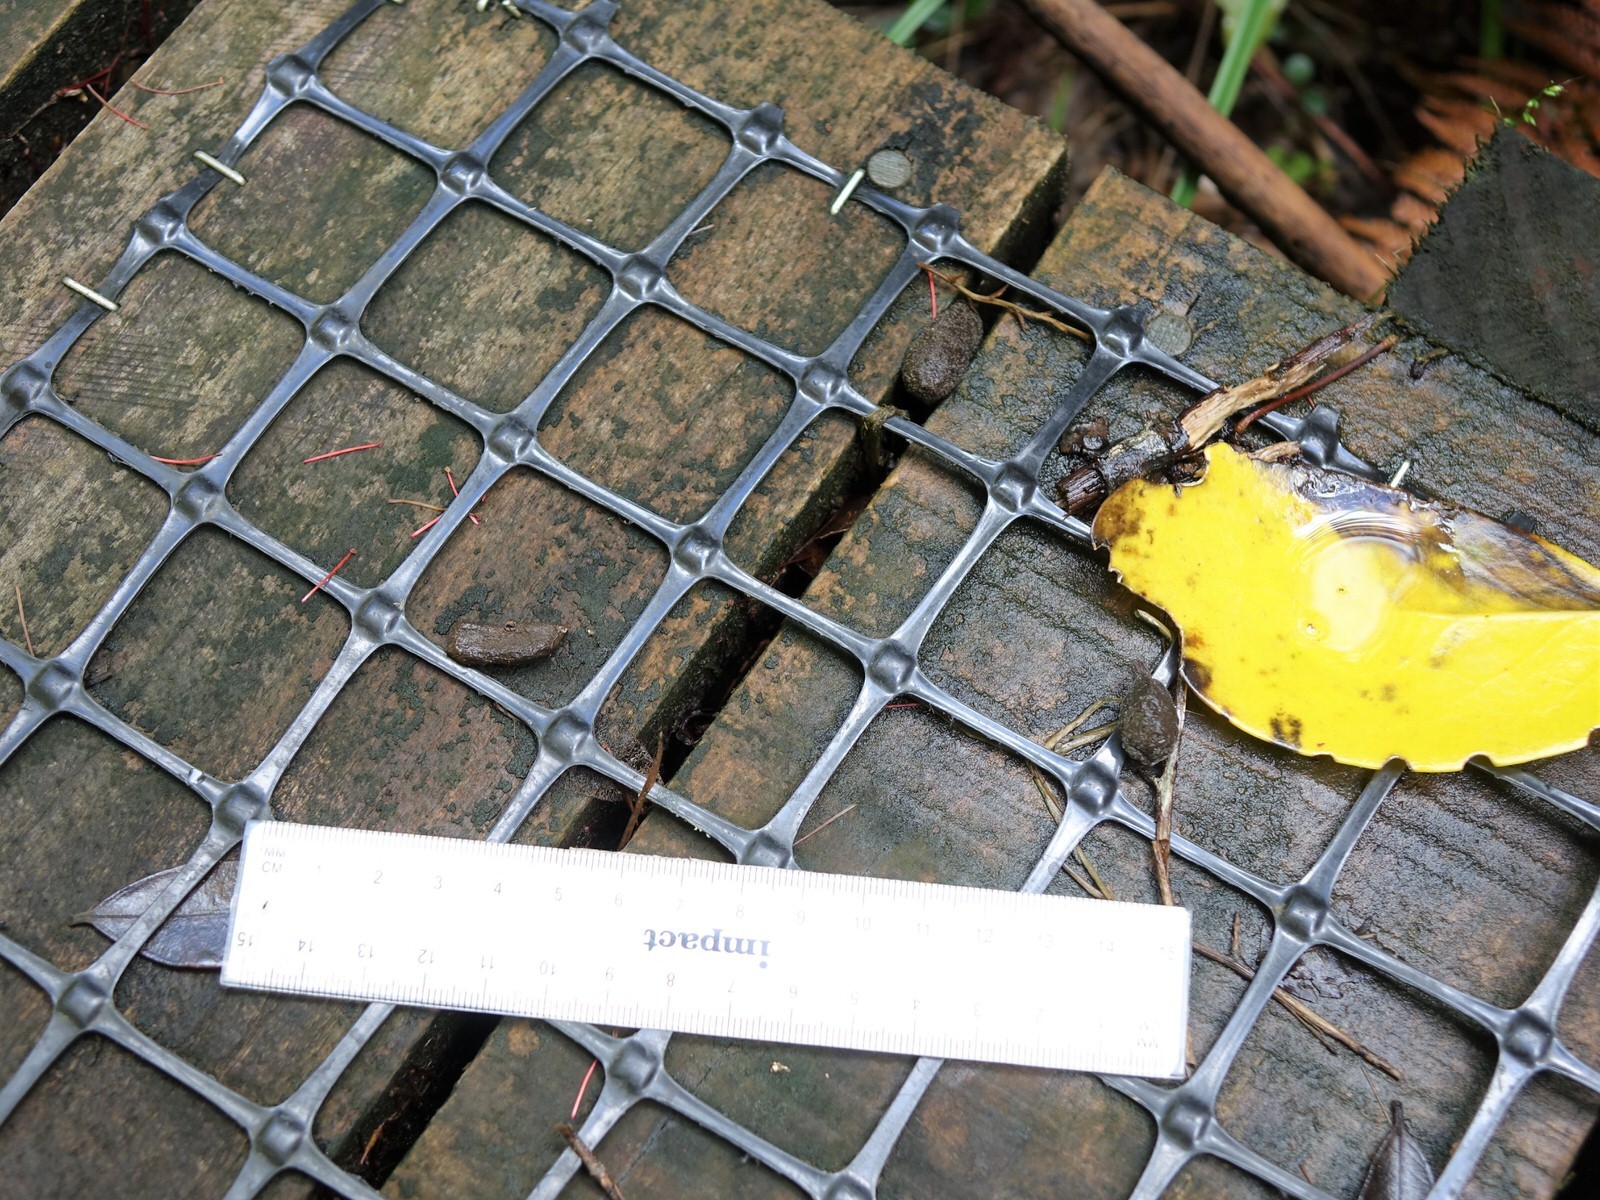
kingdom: Plantae
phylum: Tracheophyta
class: Liliopsida
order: Pandanales
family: Pandanaceae
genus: Freycinetia
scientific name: Freycinetia banksii
